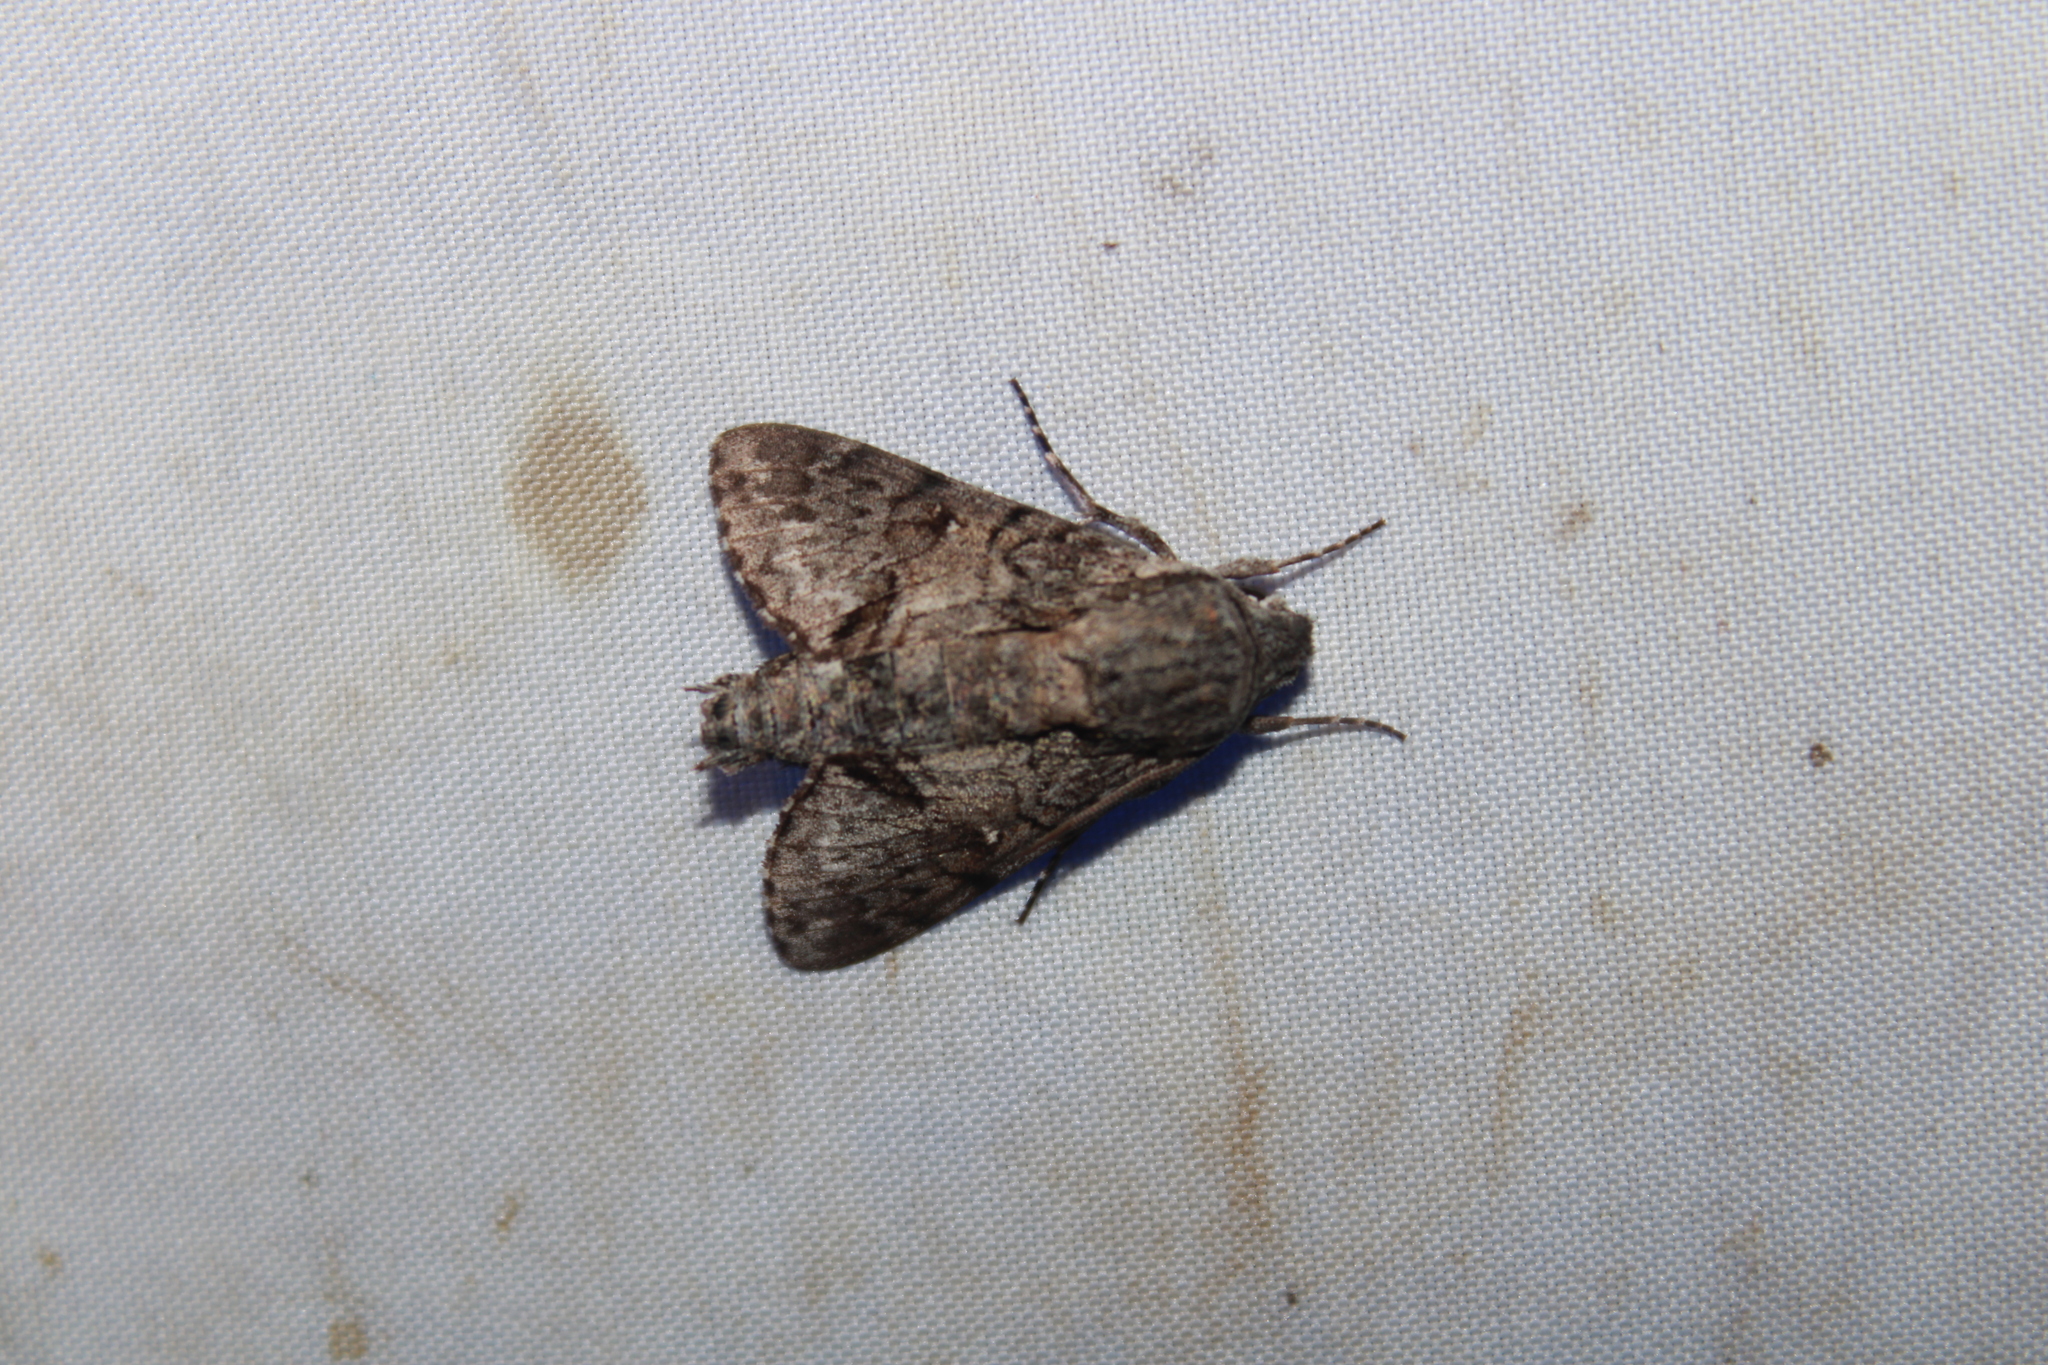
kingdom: Animalia
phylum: Arthropoda
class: Insecta
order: Lepidoptera
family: Sphingidae
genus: Cautethia
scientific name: Cautethia grotei
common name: Grote's sphinx
